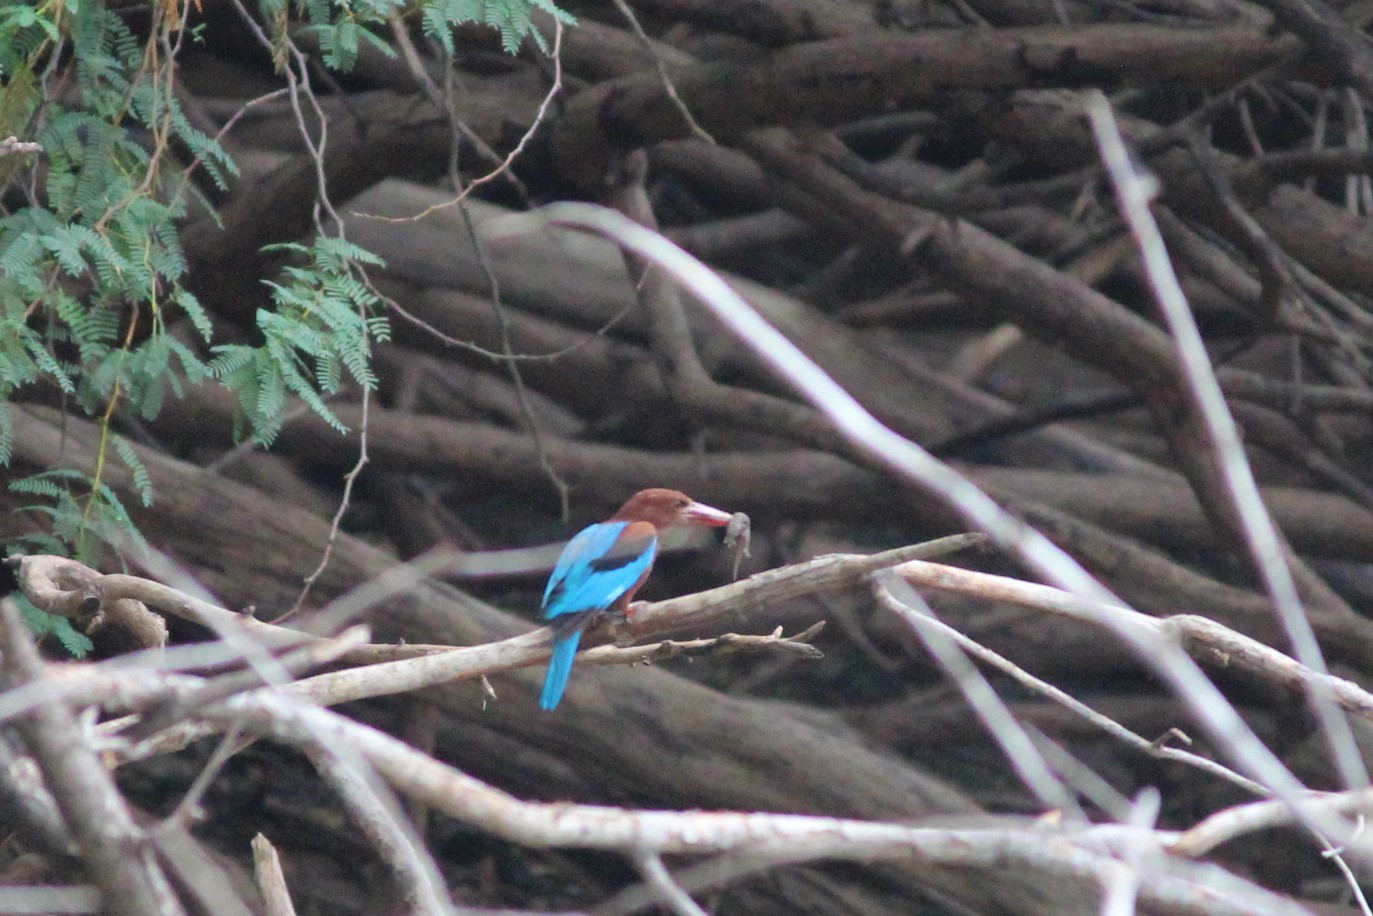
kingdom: Animalia
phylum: Chordata
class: Aves
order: Coraciiformes
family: Alcedinidae
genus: Halcyon
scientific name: Halcyon smyrnensis
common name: White-throated kingfisher
